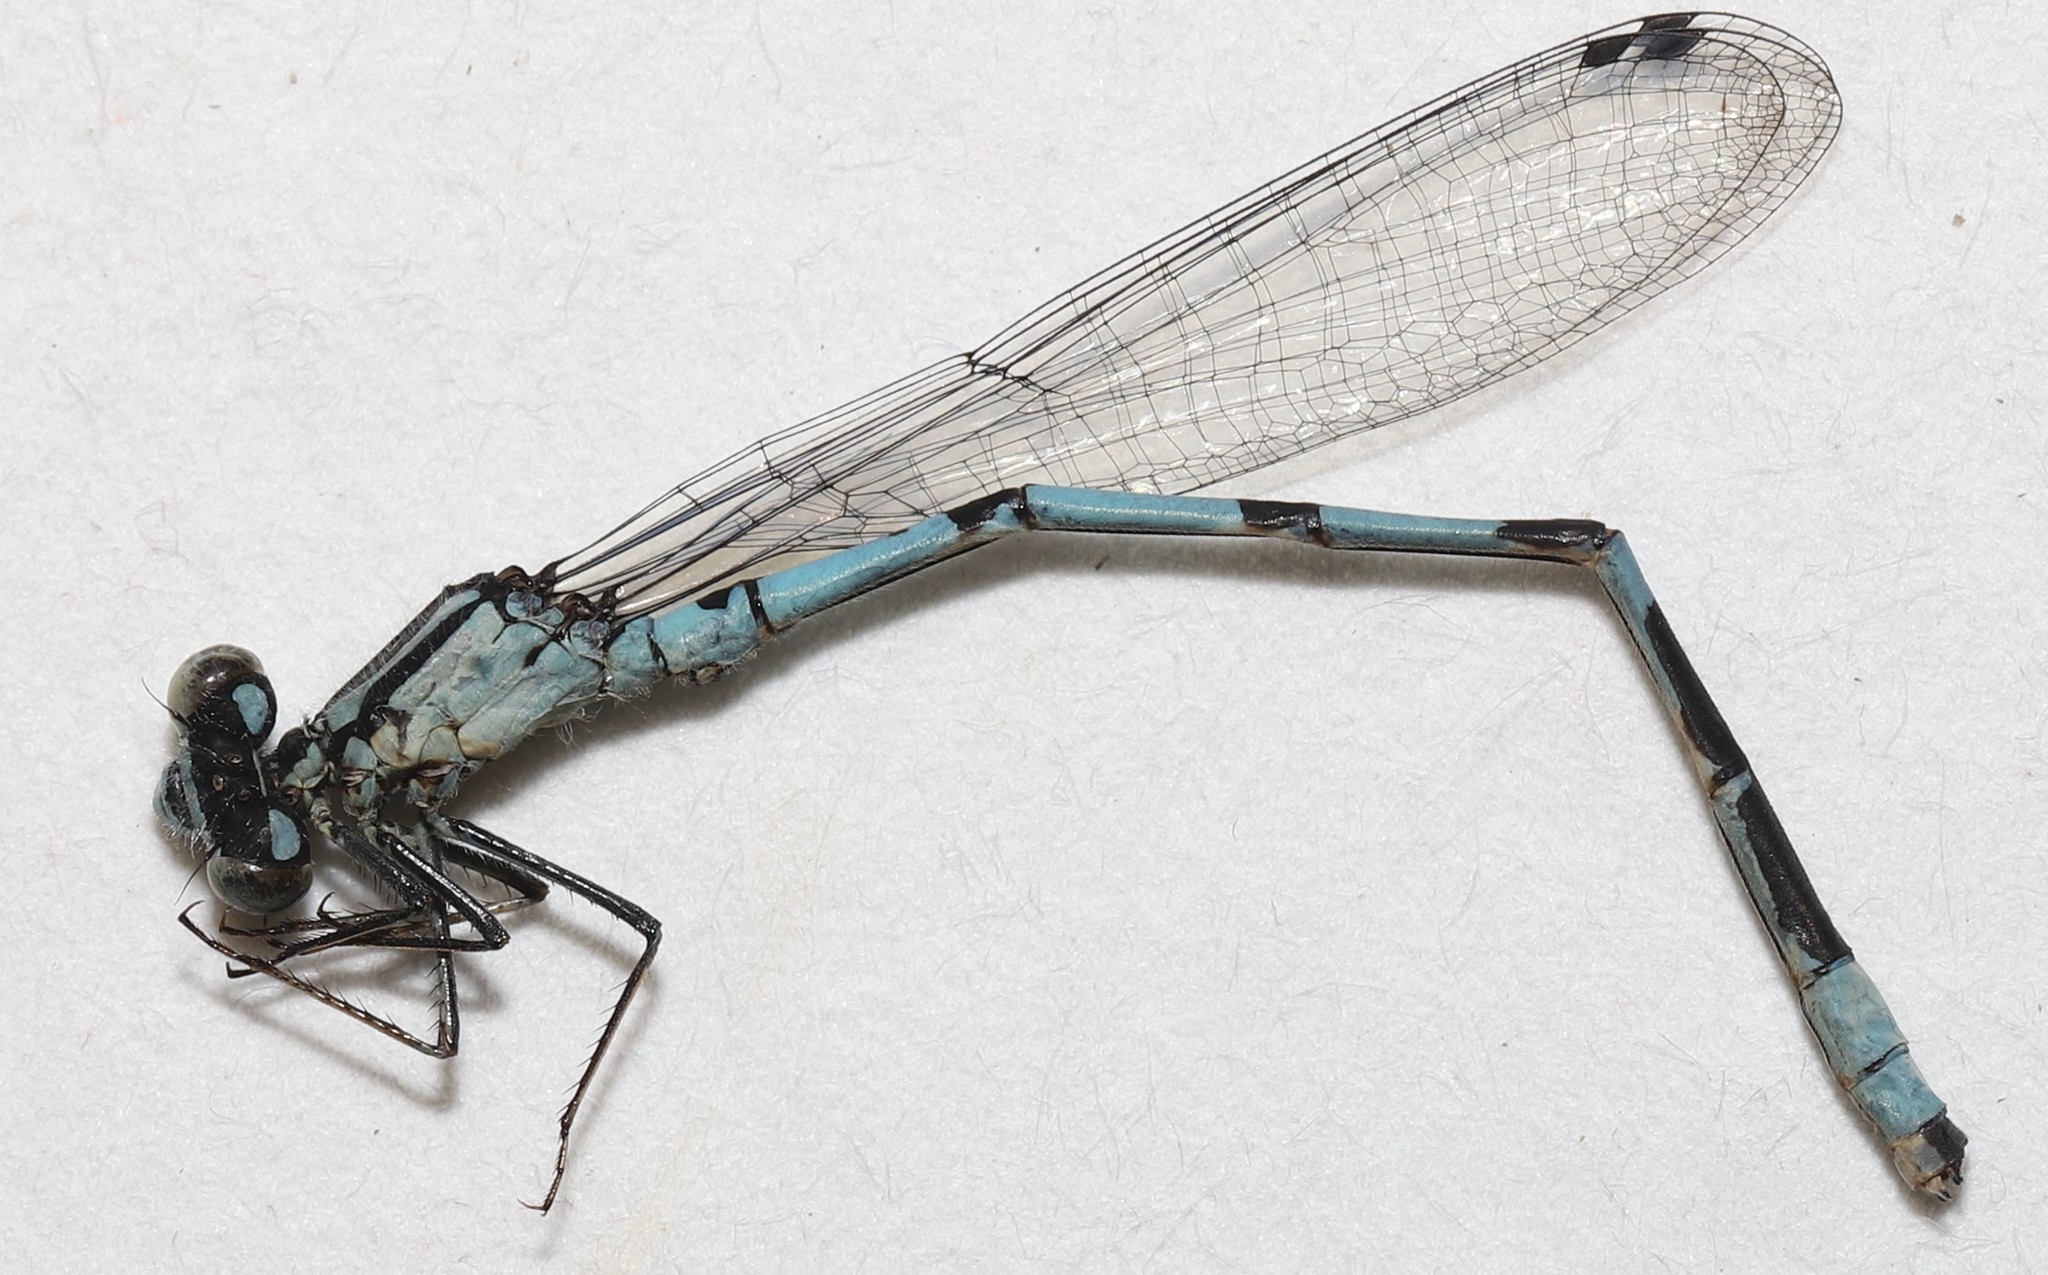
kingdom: Animalia
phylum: Arthropoda
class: Insecta
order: Odonata
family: Coenagrionidae
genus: Enallagma
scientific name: Enallagma hageni
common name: Hagen's bluet
